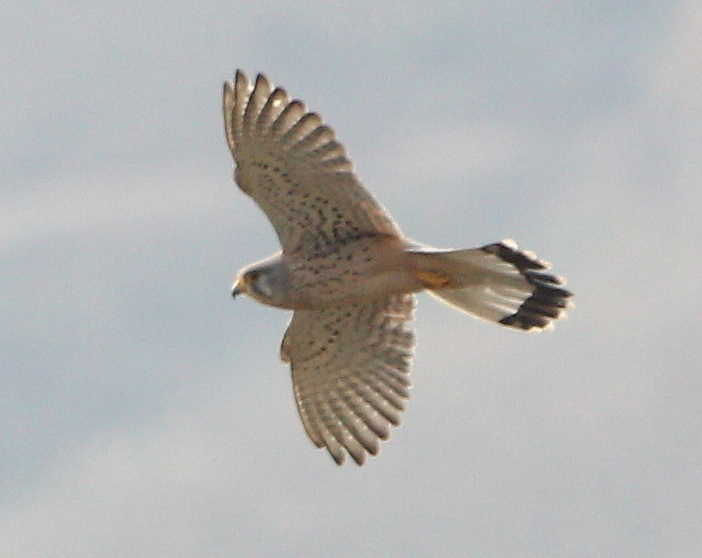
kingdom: Animalia
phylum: Chordata
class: Aves
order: Falconiformes
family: Falconidae
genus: Falco
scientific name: Falco tinnunculus
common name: Common kestrel
